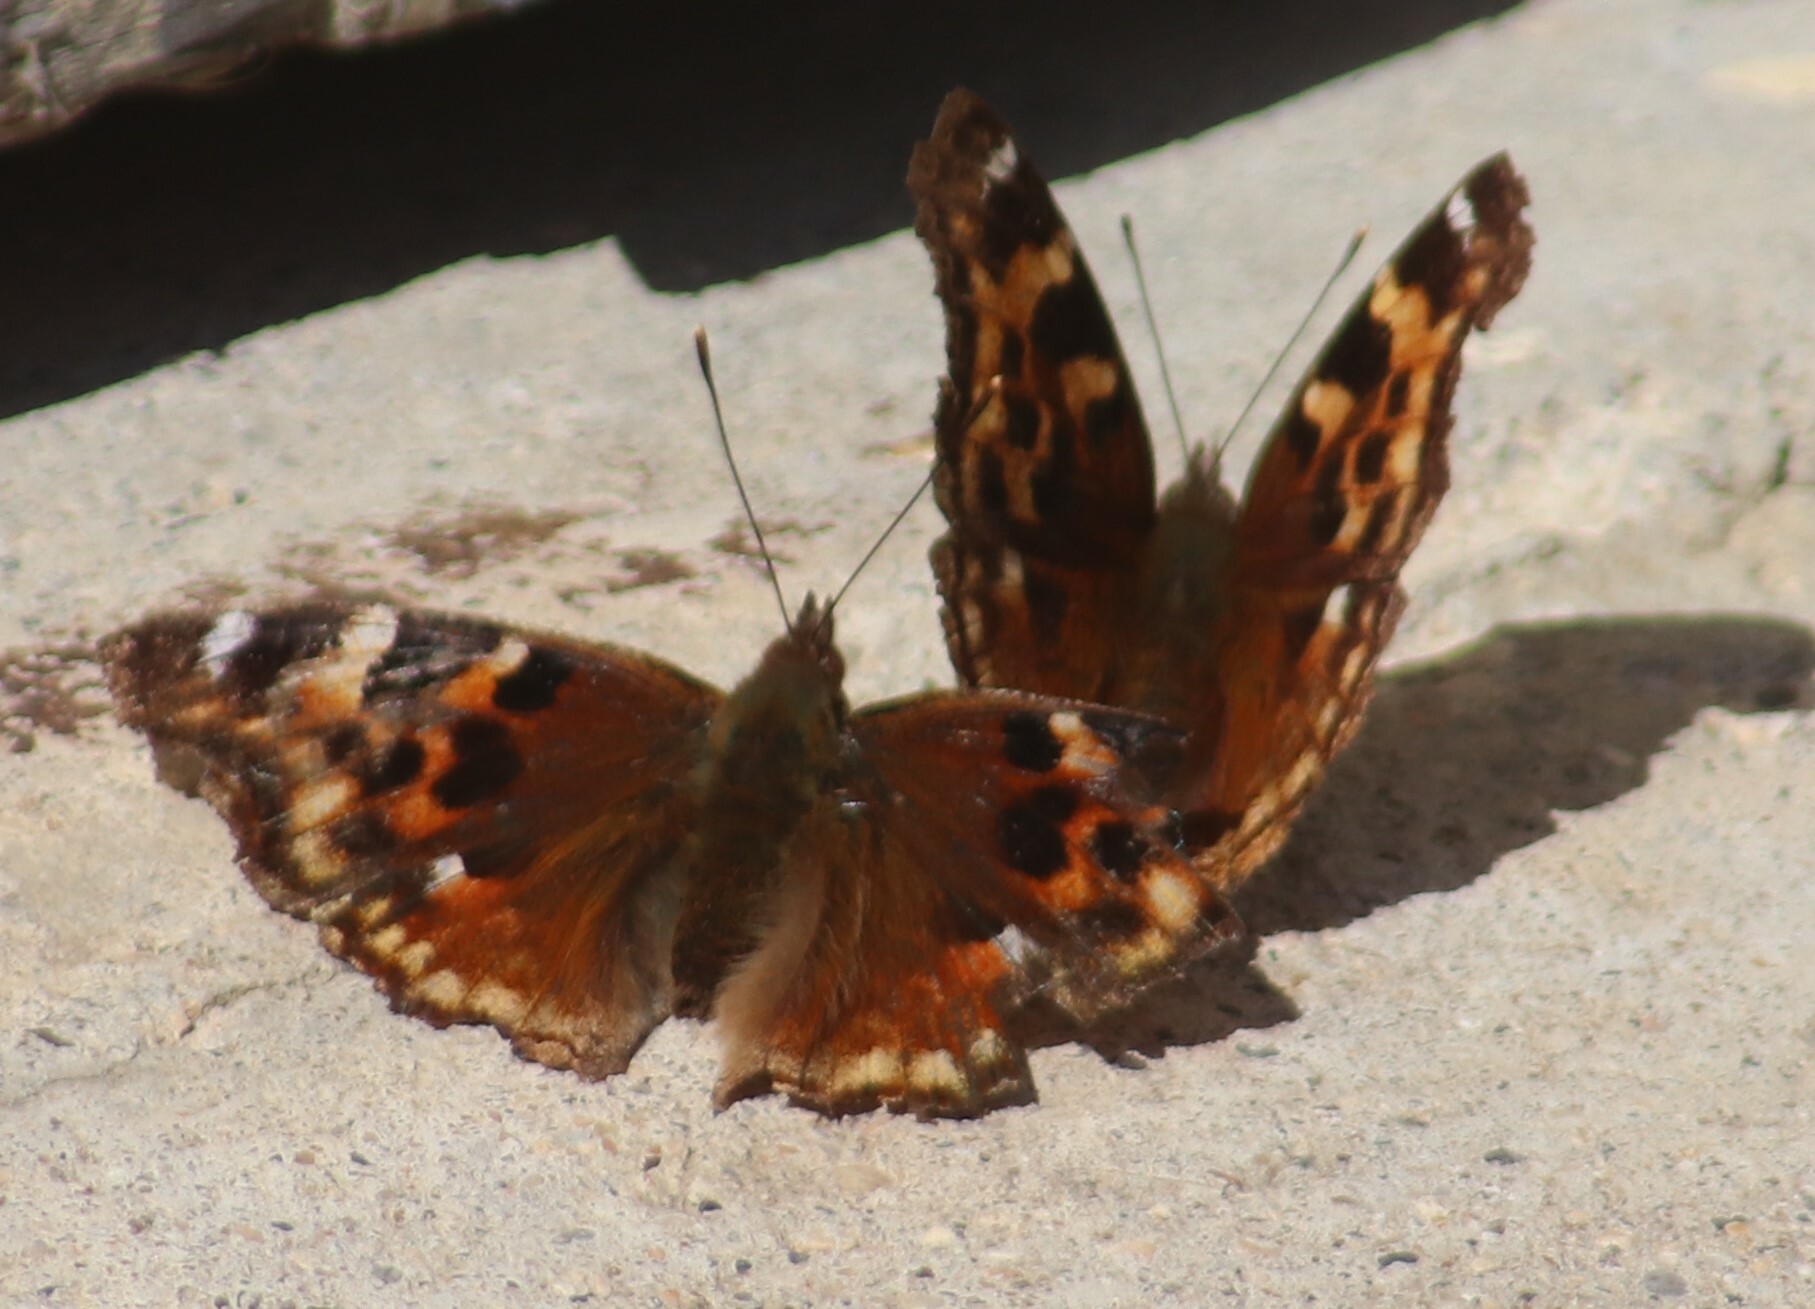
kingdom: Animalia
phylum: Arthropoda
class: Insecta
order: Lepidoptera
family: Nymphalidae
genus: Polygonia
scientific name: Polygonia vaualbum
